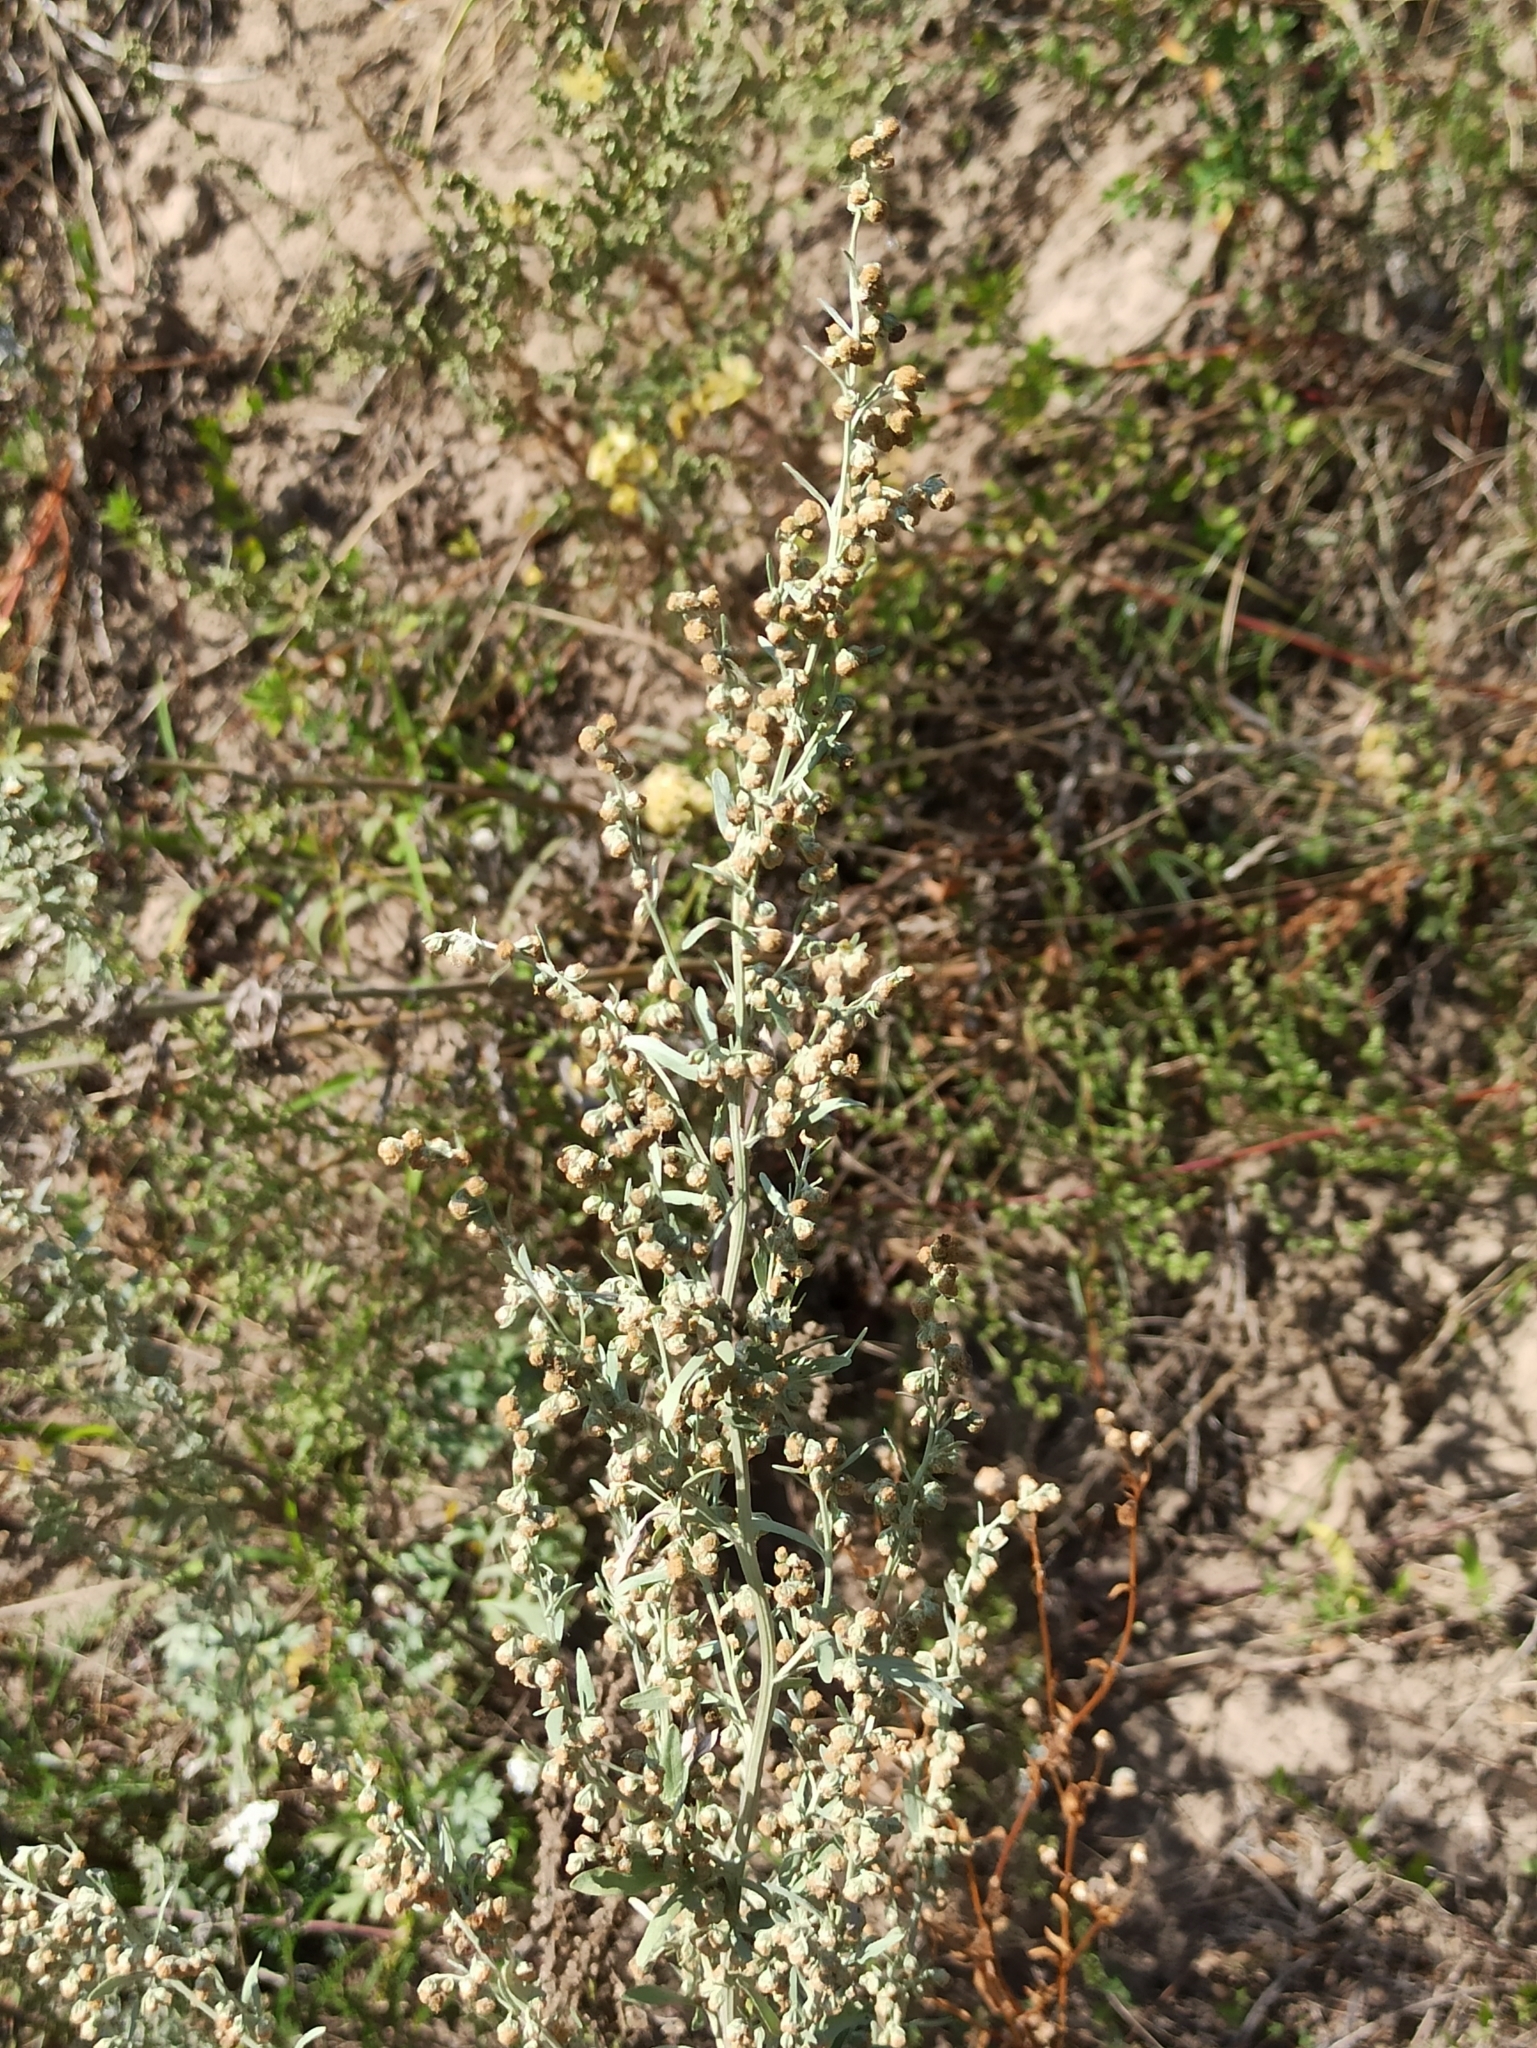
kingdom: Plantae
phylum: Tracheophyta
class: Magnoliopsida
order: Asterales
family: Asteraceae
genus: Artemisia
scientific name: Artemisia absinthium
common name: Wormwood
